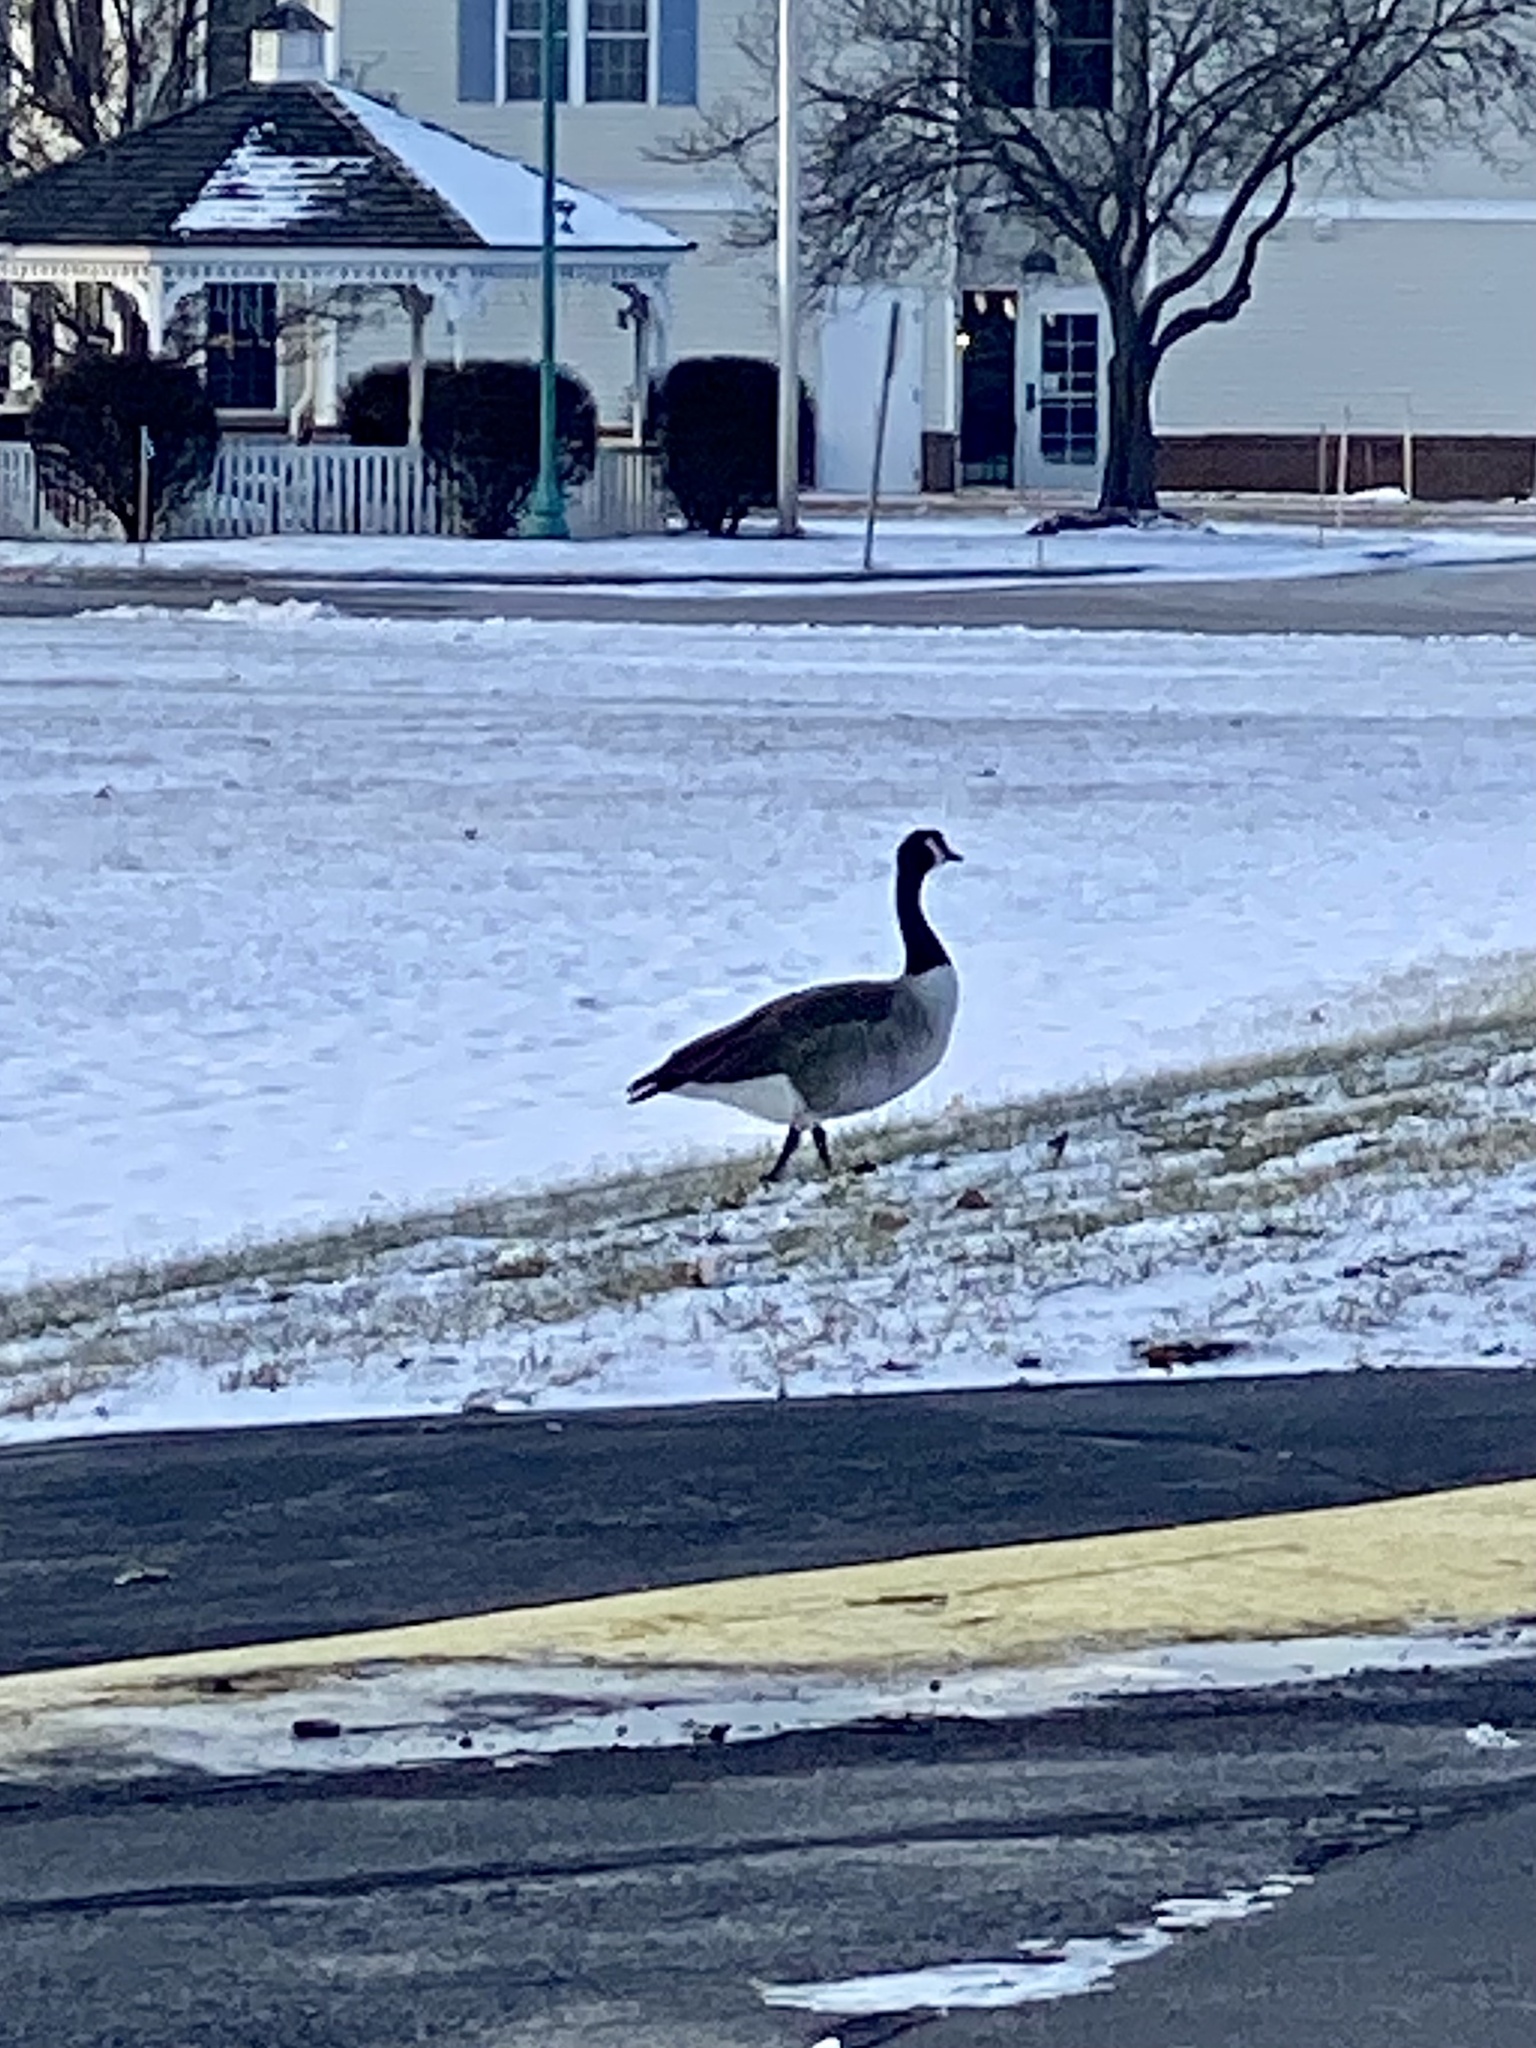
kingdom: Animalia
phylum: Chordata
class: Aves
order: Anseriformes
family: Anatidae
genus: Branta
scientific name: Branta canadensis
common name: Canada goose
